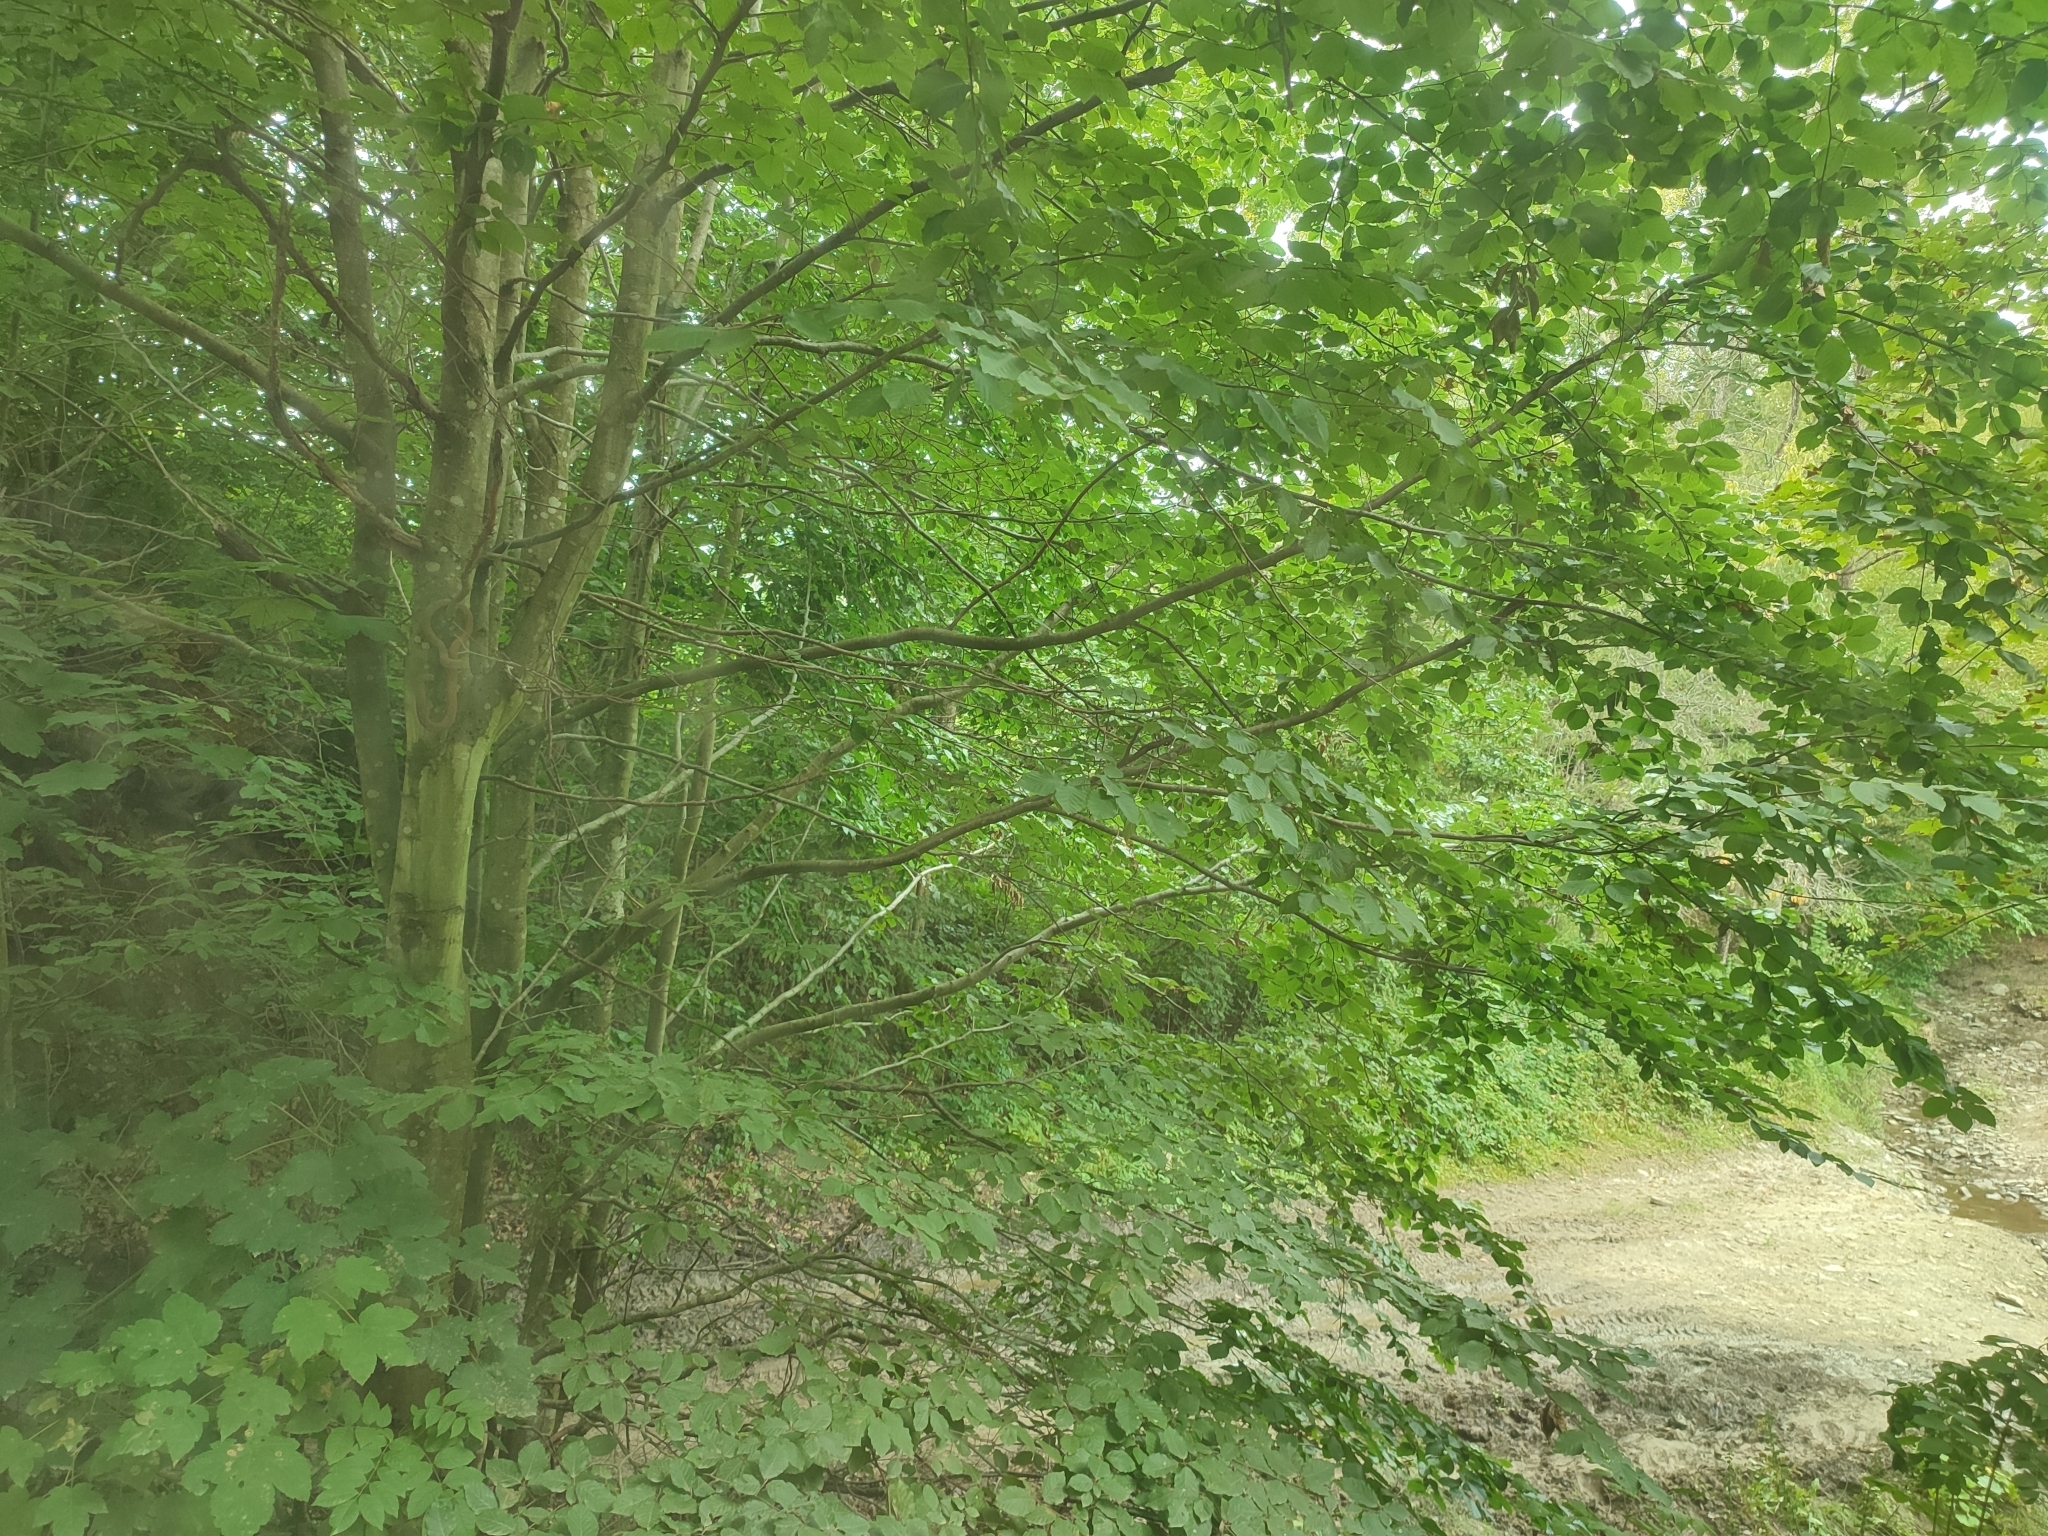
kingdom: Plantae
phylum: Tracheophyta
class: Magnoliopsida
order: Fagales
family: Fagaceae
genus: Fagus
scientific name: Fagus sylvatica
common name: Beech
